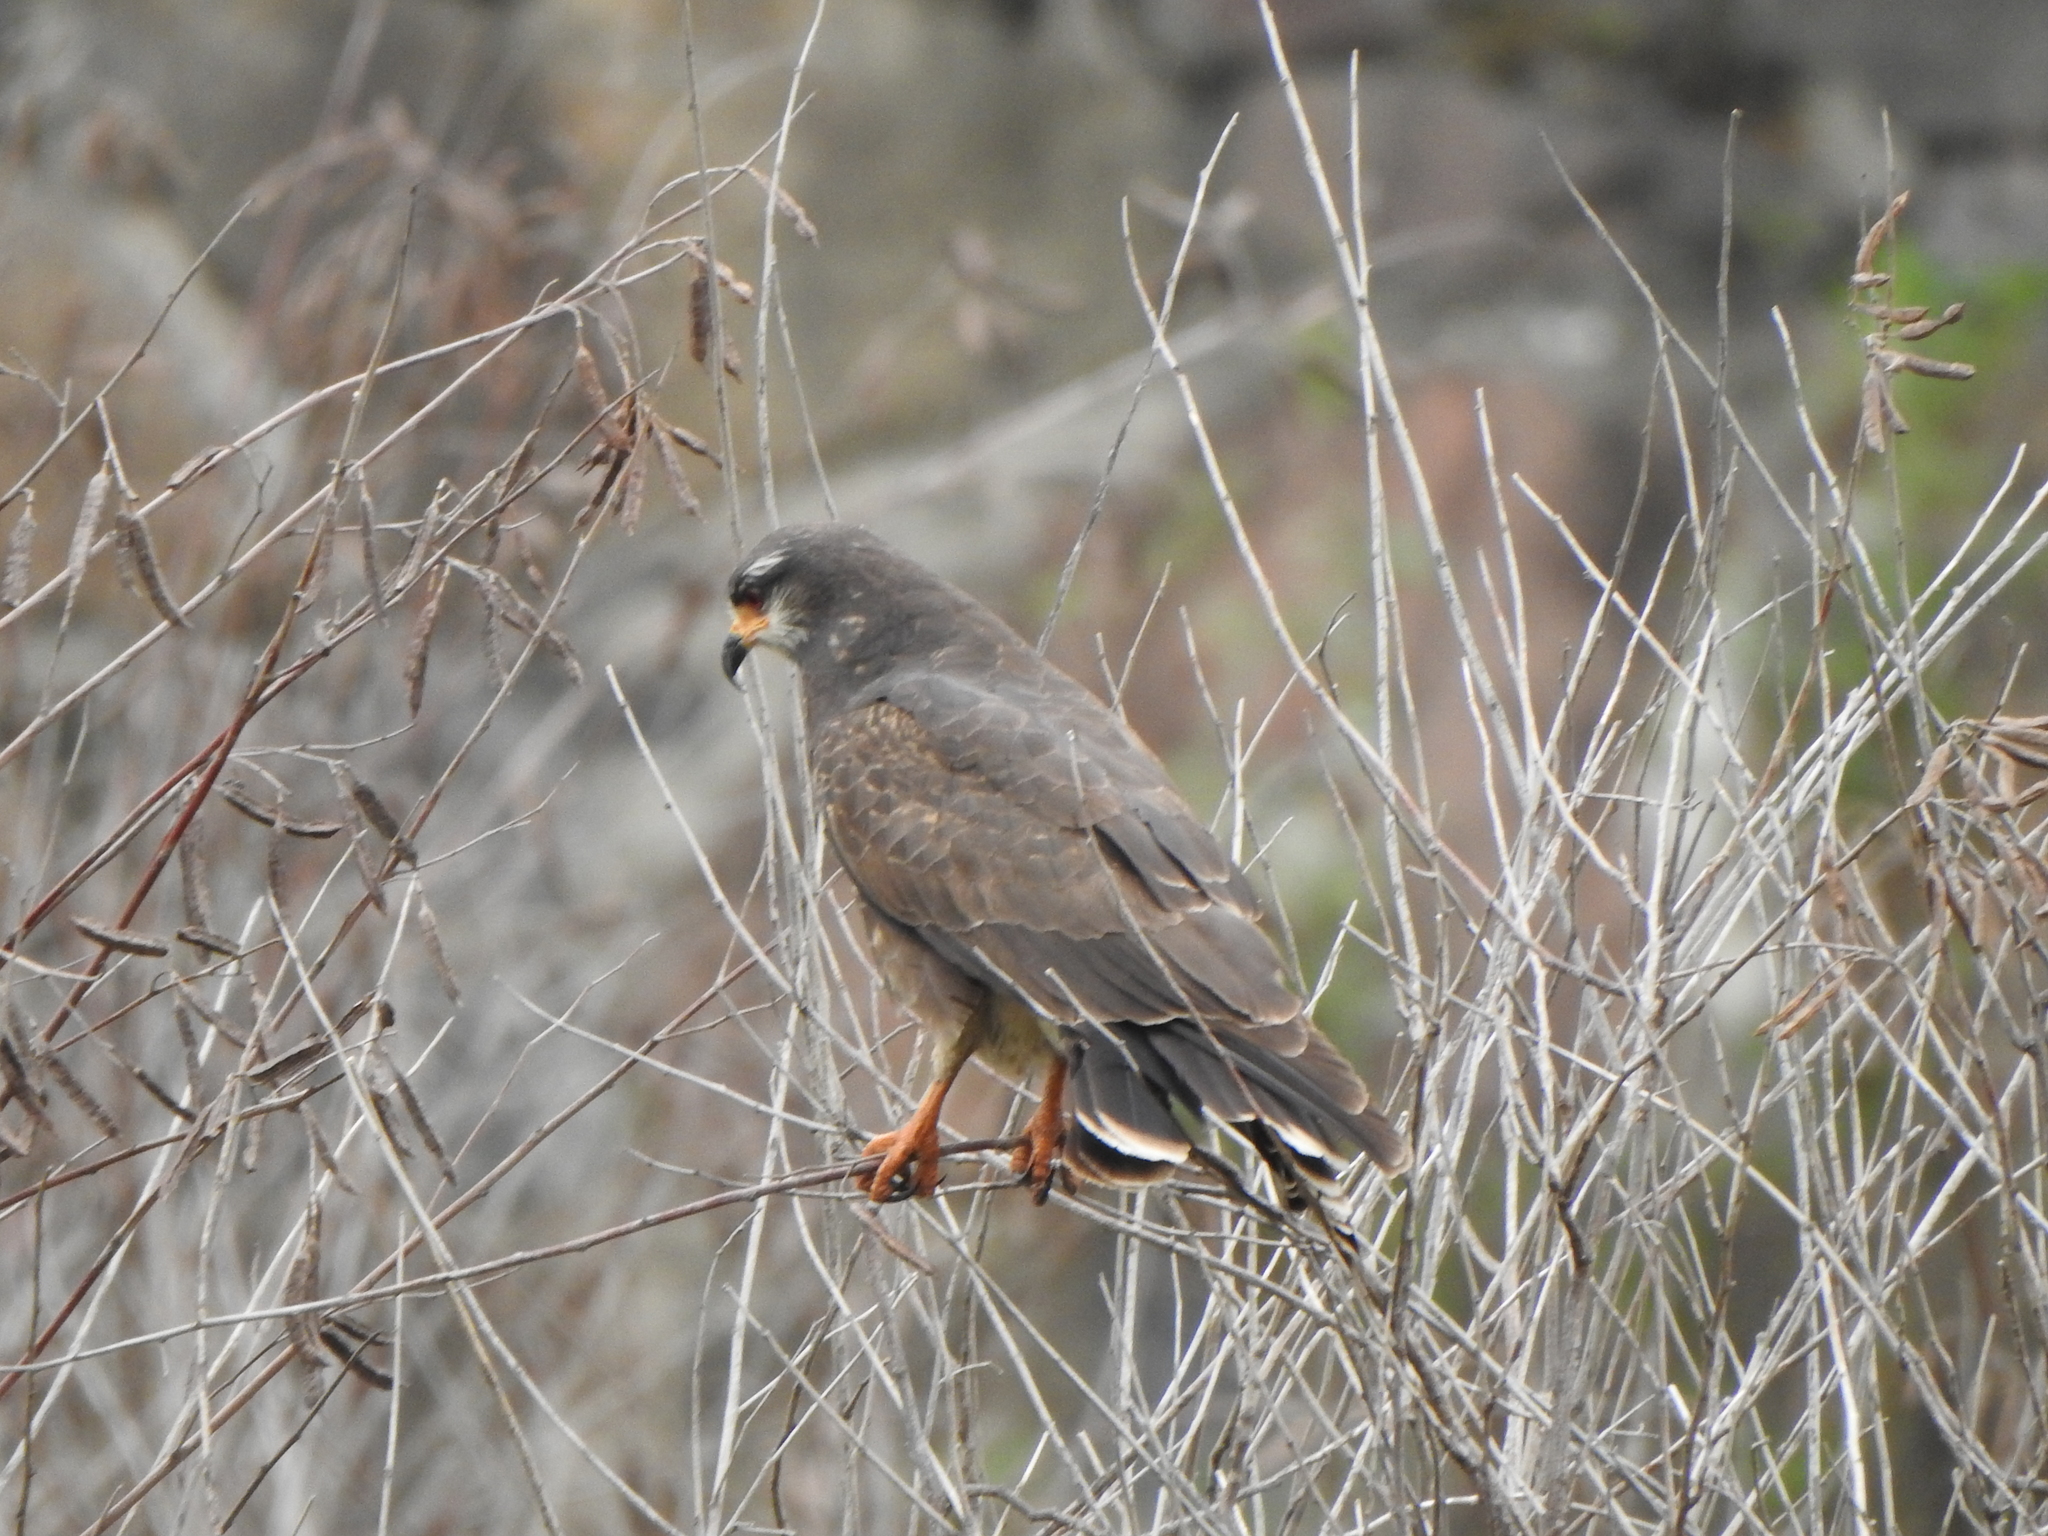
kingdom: Animalia
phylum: Chordata
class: Aves
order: Accipitriformes
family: Accipitridae
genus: Rostrhamus
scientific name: Rostrhamus sociabilis
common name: Snail kite
